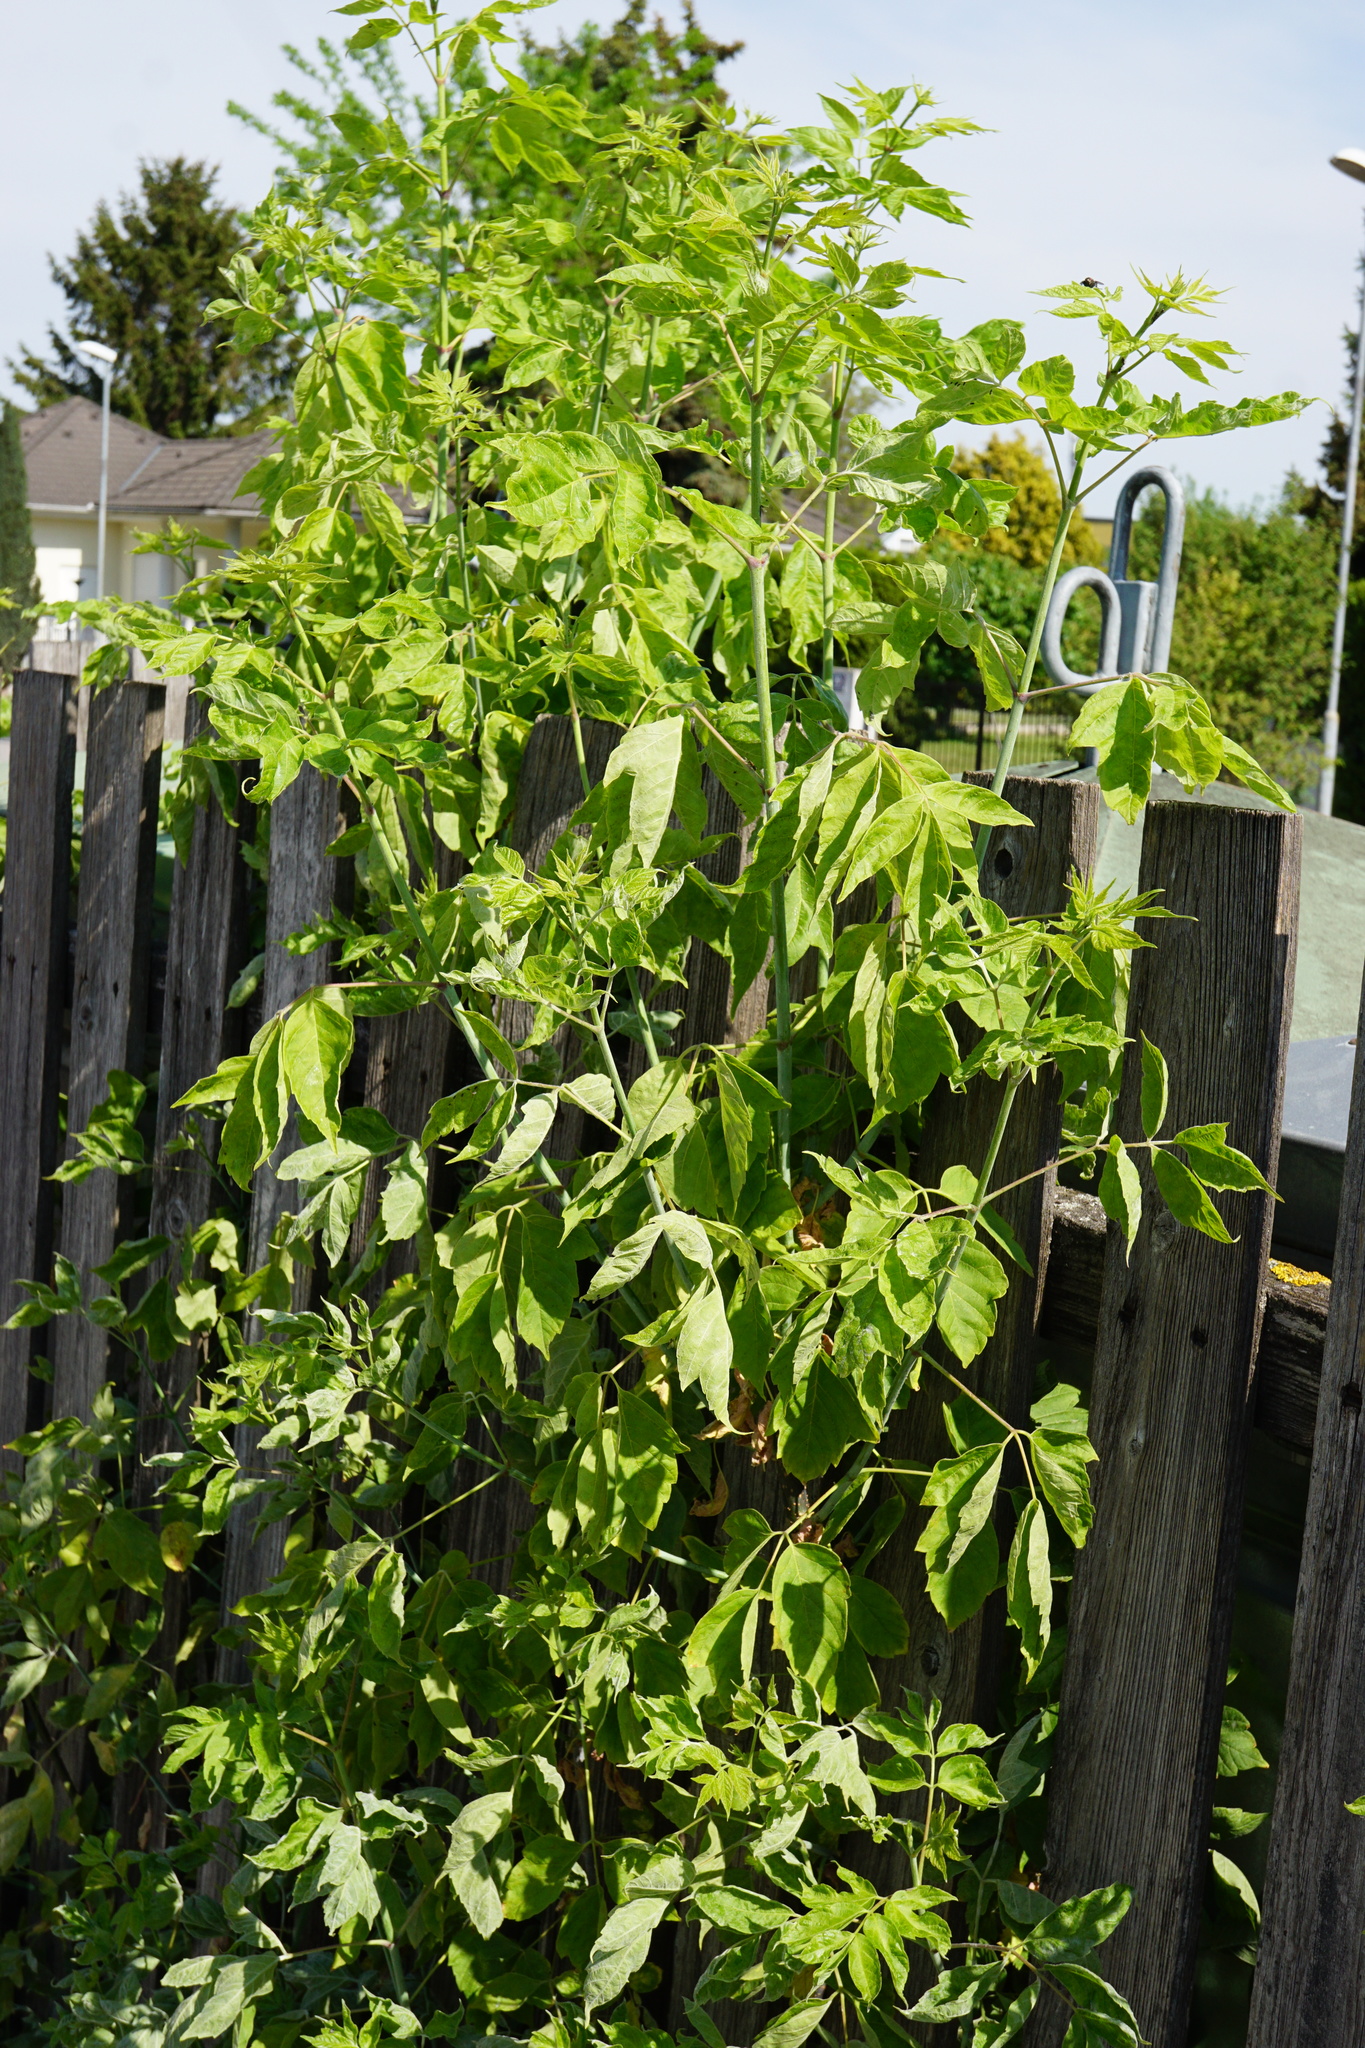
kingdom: Plantae
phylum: Tracheophyta
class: Magnoliopsida
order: Sapindales
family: Sapindaceae
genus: Acer
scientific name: Acer negundo
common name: Ashleaf maple
